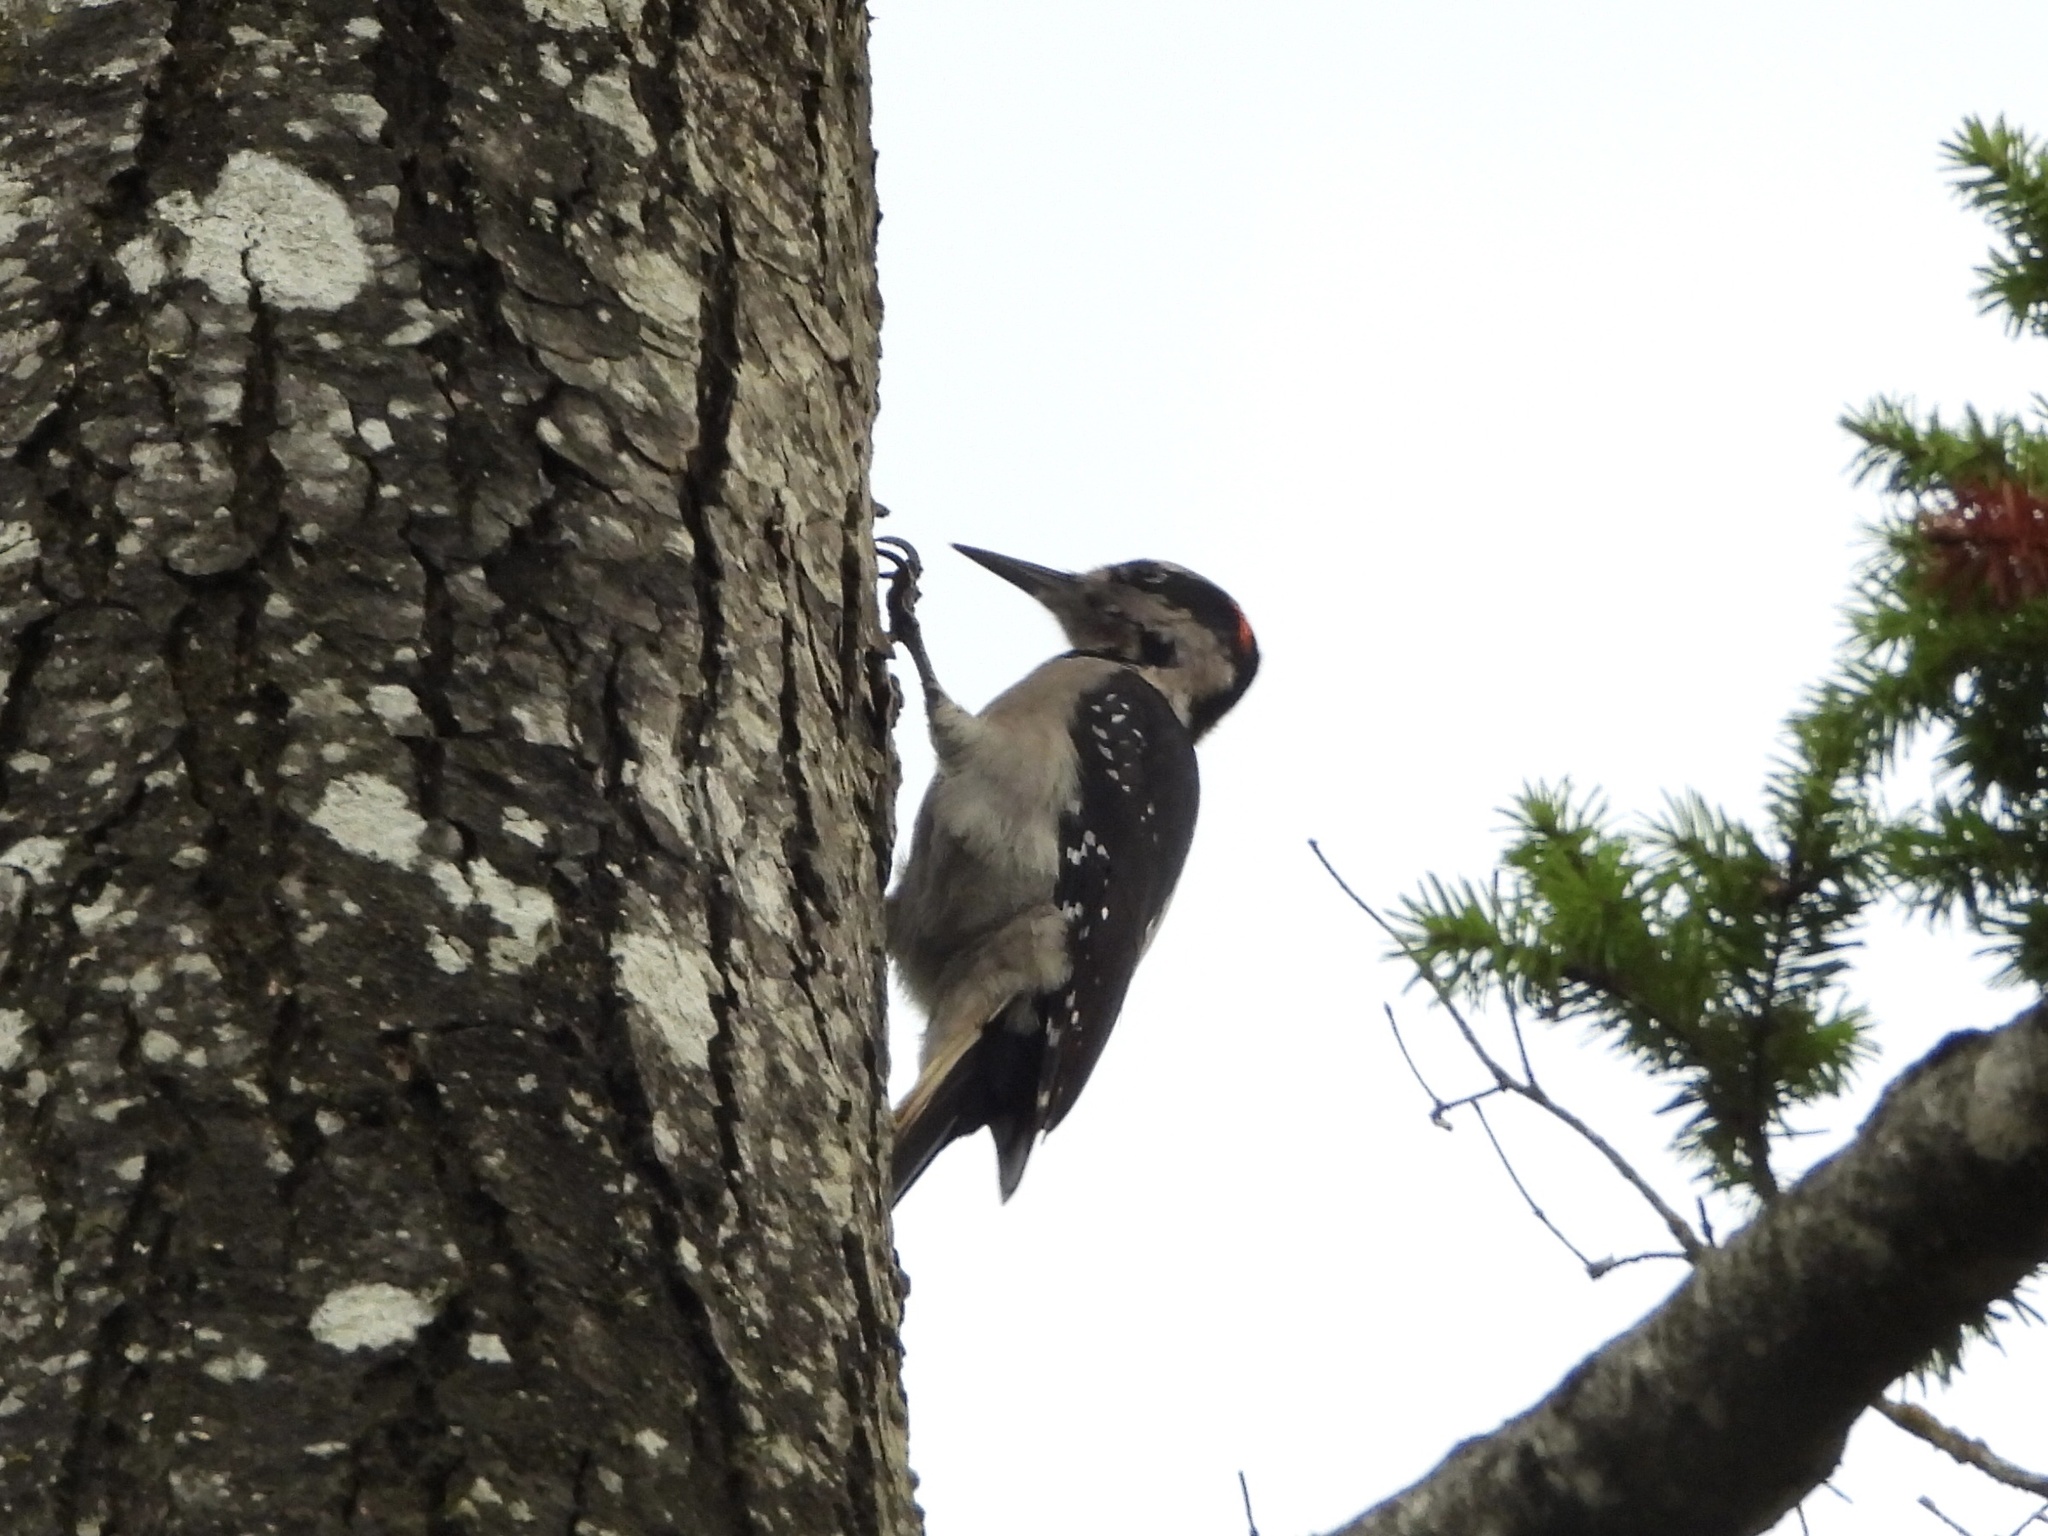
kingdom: Animalia
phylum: Chordata
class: Aves
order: Piciformes
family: Picidae
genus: Leuconotopicus
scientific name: Leuconotopicus villosus
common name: Hairy woodpecker
